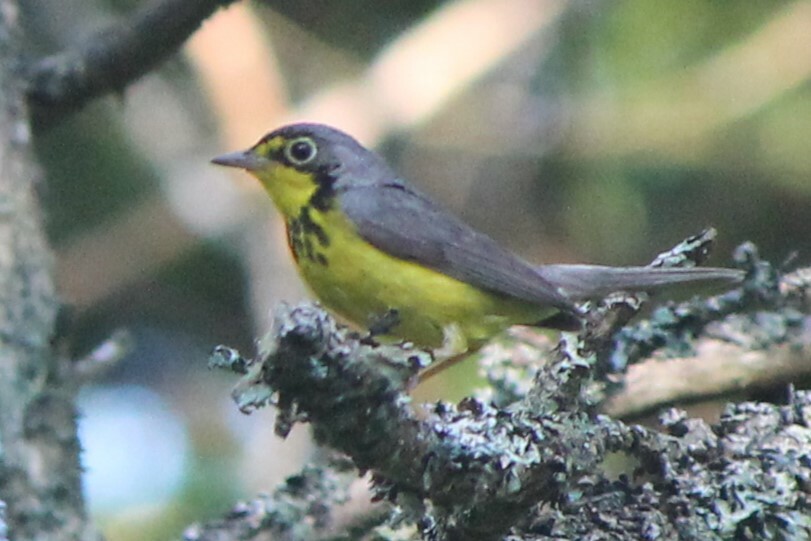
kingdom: Animalia
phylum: Chordata
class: Aves
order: Passeriformes
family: Parulidae
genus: Cardellina
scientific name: Cardellina canadensis
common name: Canada warbler
